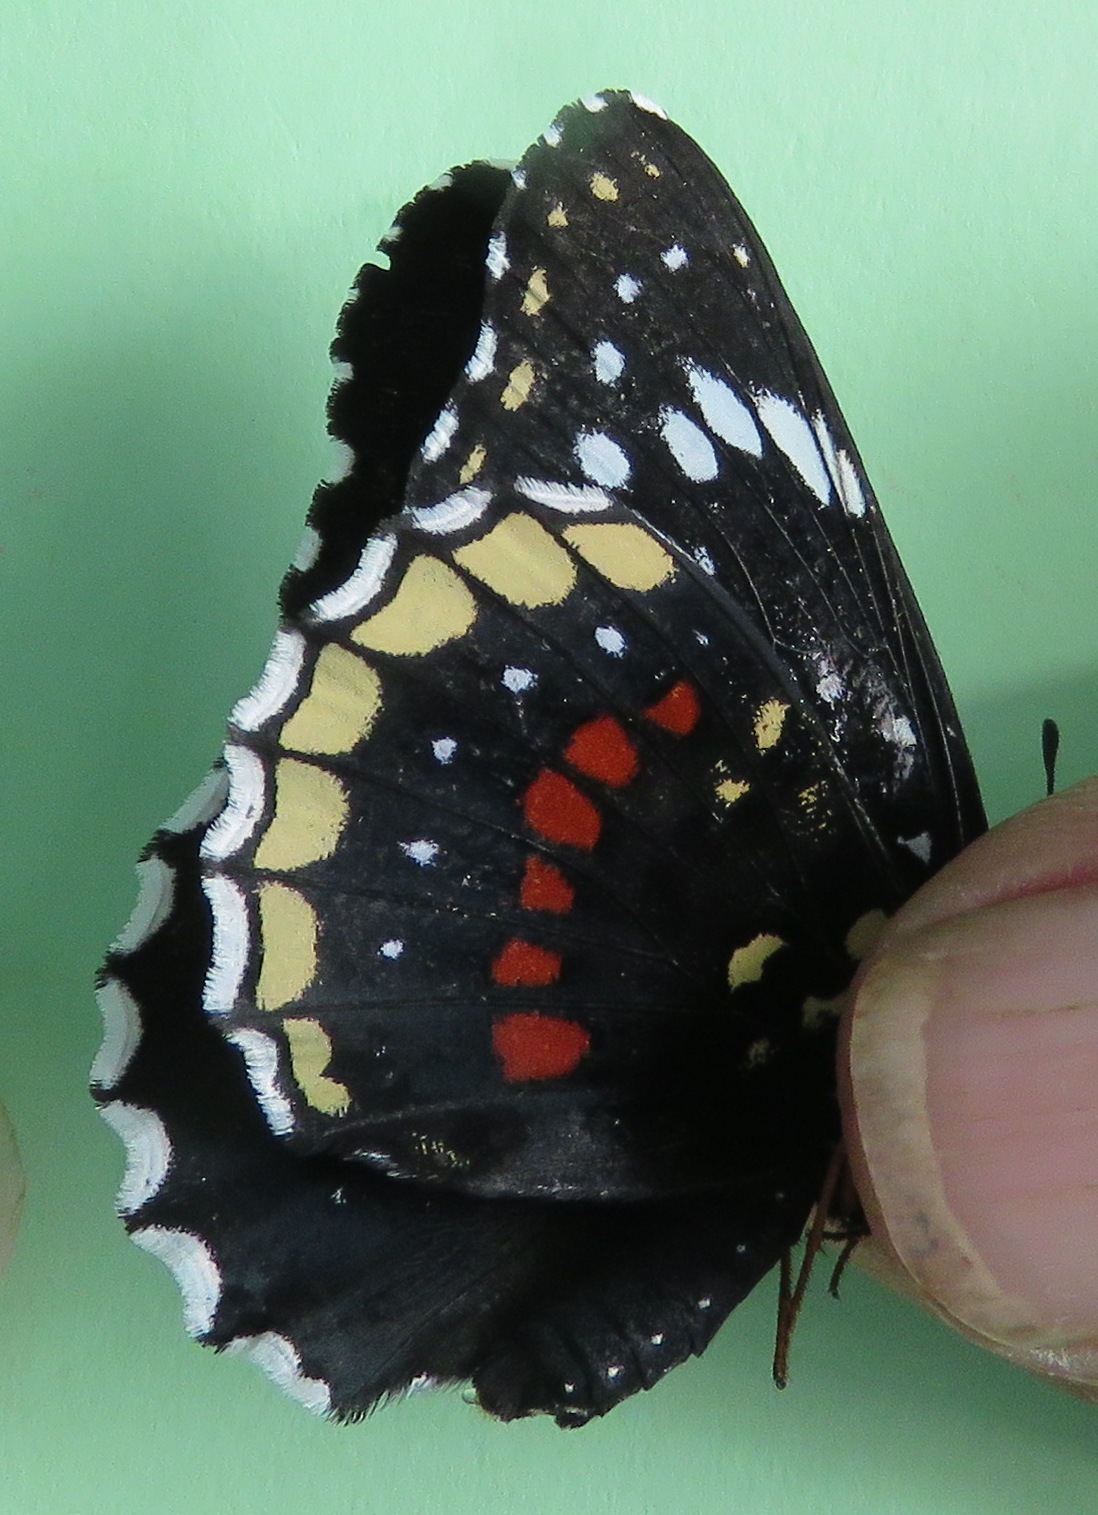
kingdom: Animalia
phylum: Arthropoda
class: Insecta
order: Lepidoptera
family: Nymphalidae
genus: Chlosyne
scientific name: Chlosyne hippodrome
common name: Simple patch
